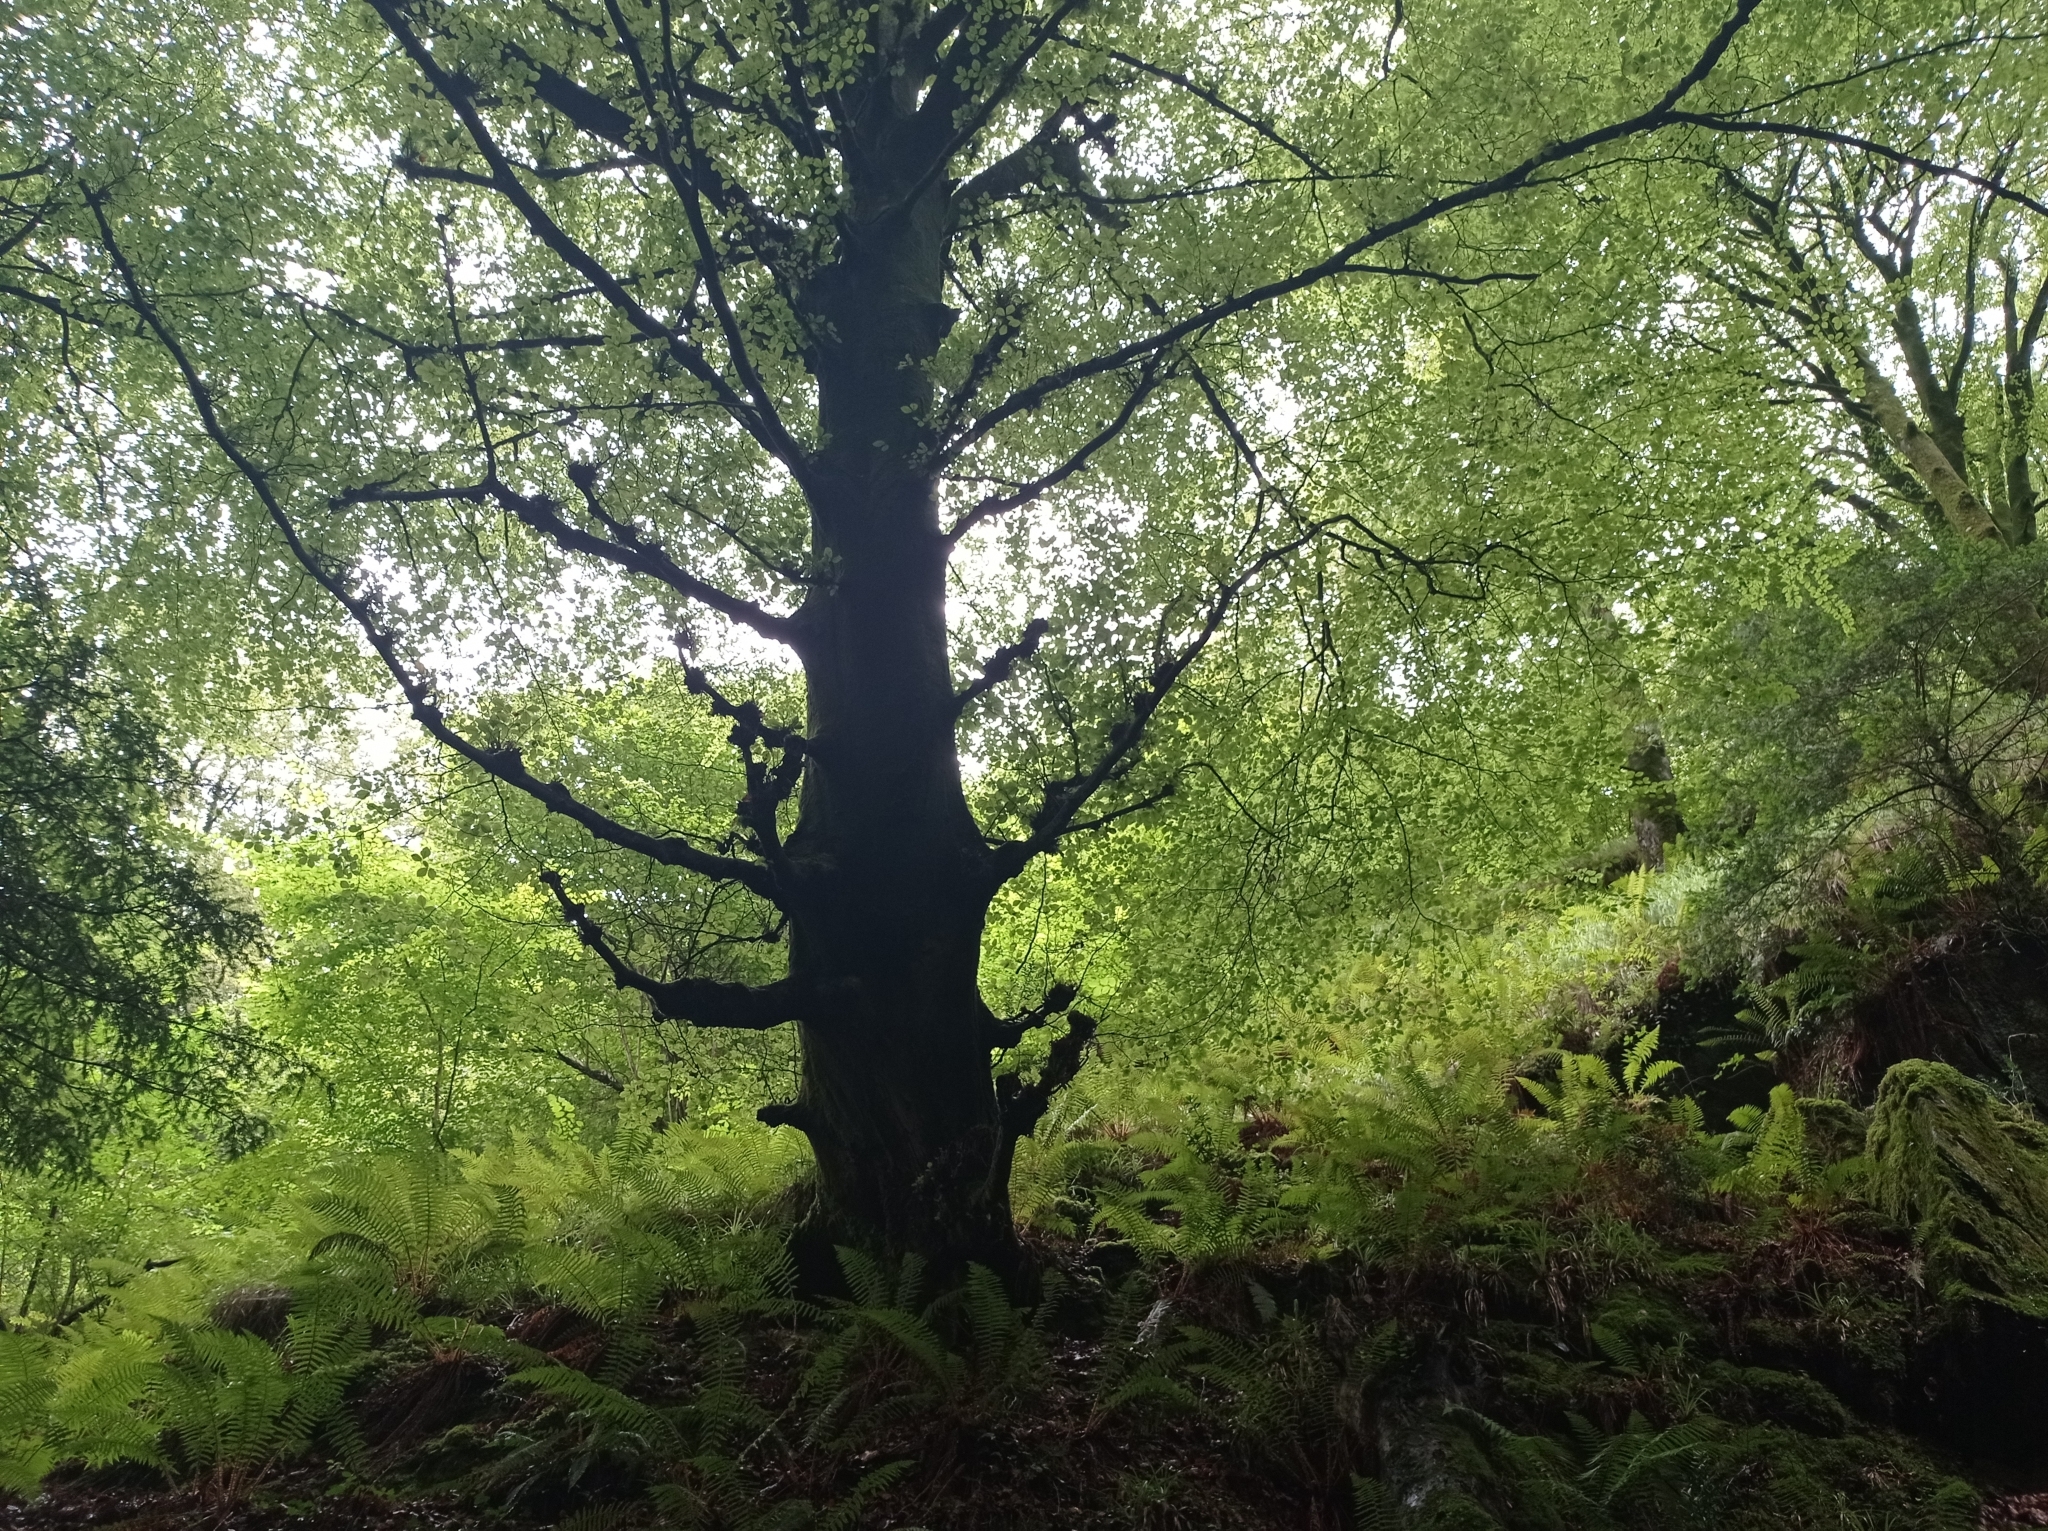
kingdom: Plantae
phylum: Tracheophyta
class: Magnoliopsida
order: Fagales
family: Fagaceae
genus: Fagus
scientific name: Fagus sylvatica
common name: Beech
